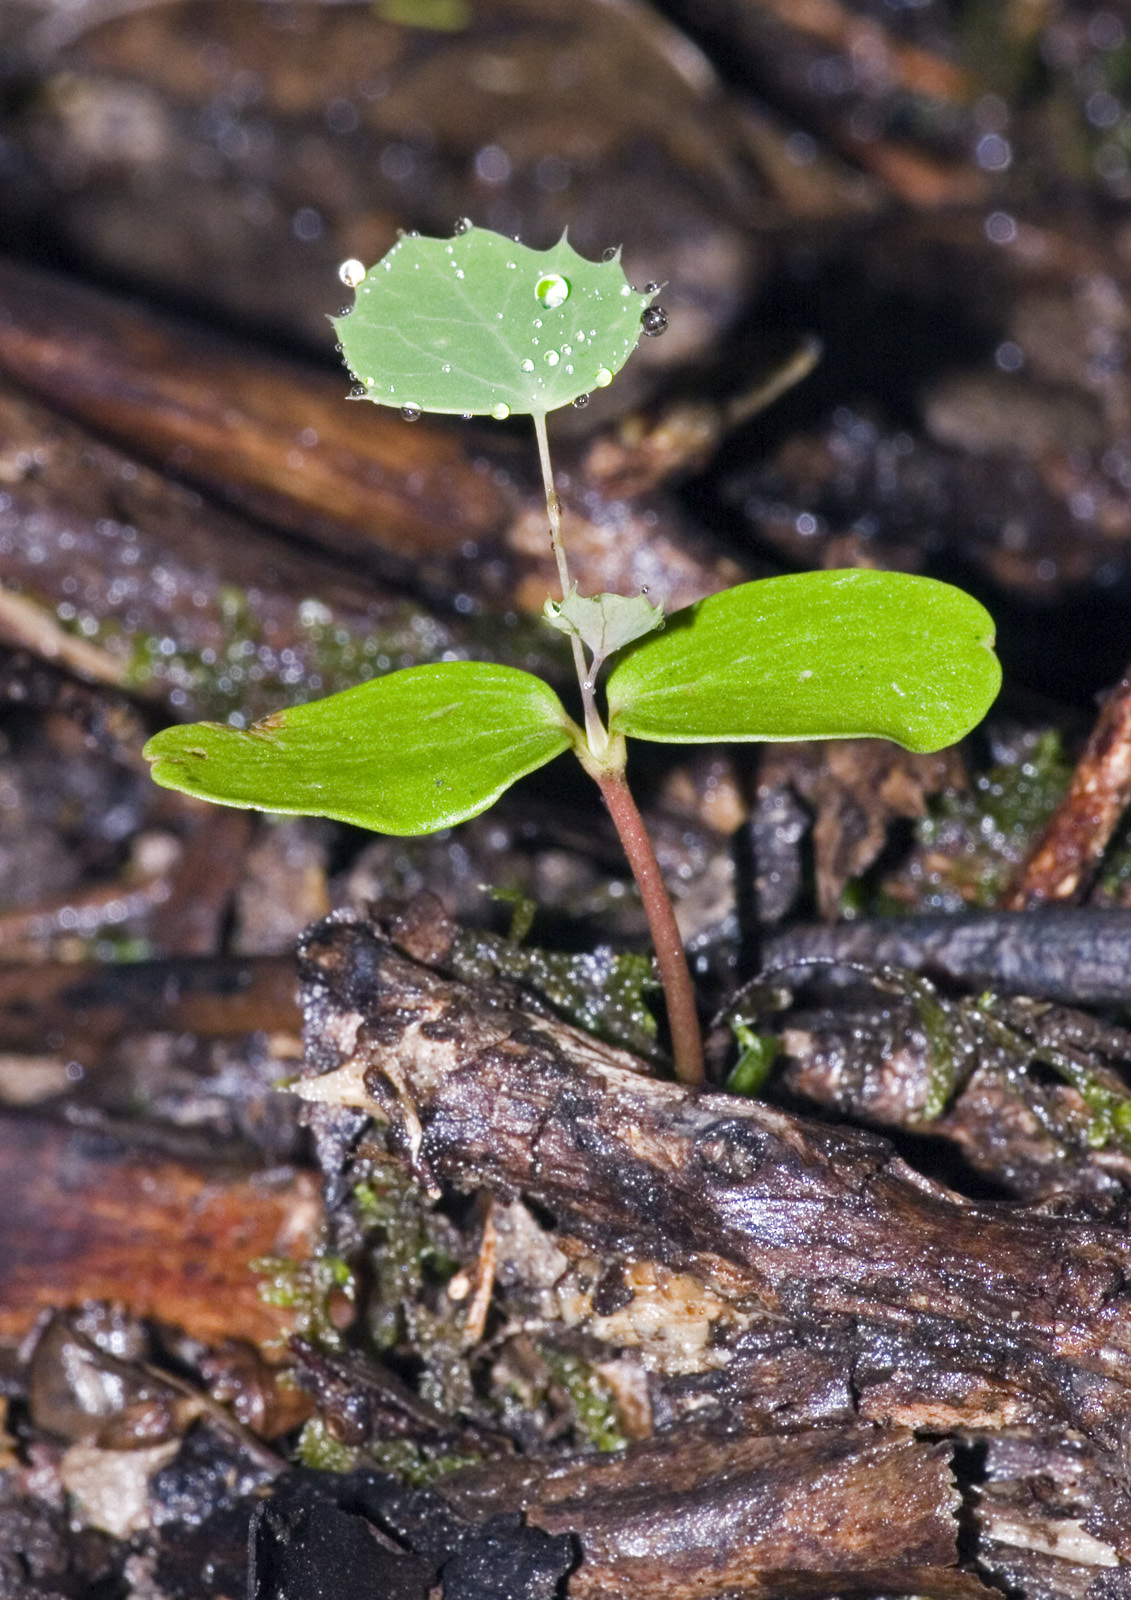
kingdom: Plantae
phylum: Tracheophyta
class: Magnoliopsida
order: Ranunculales
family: Berberidaceae
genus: Berberis
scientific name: Berberis glaucocarpa
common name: Great barberry
